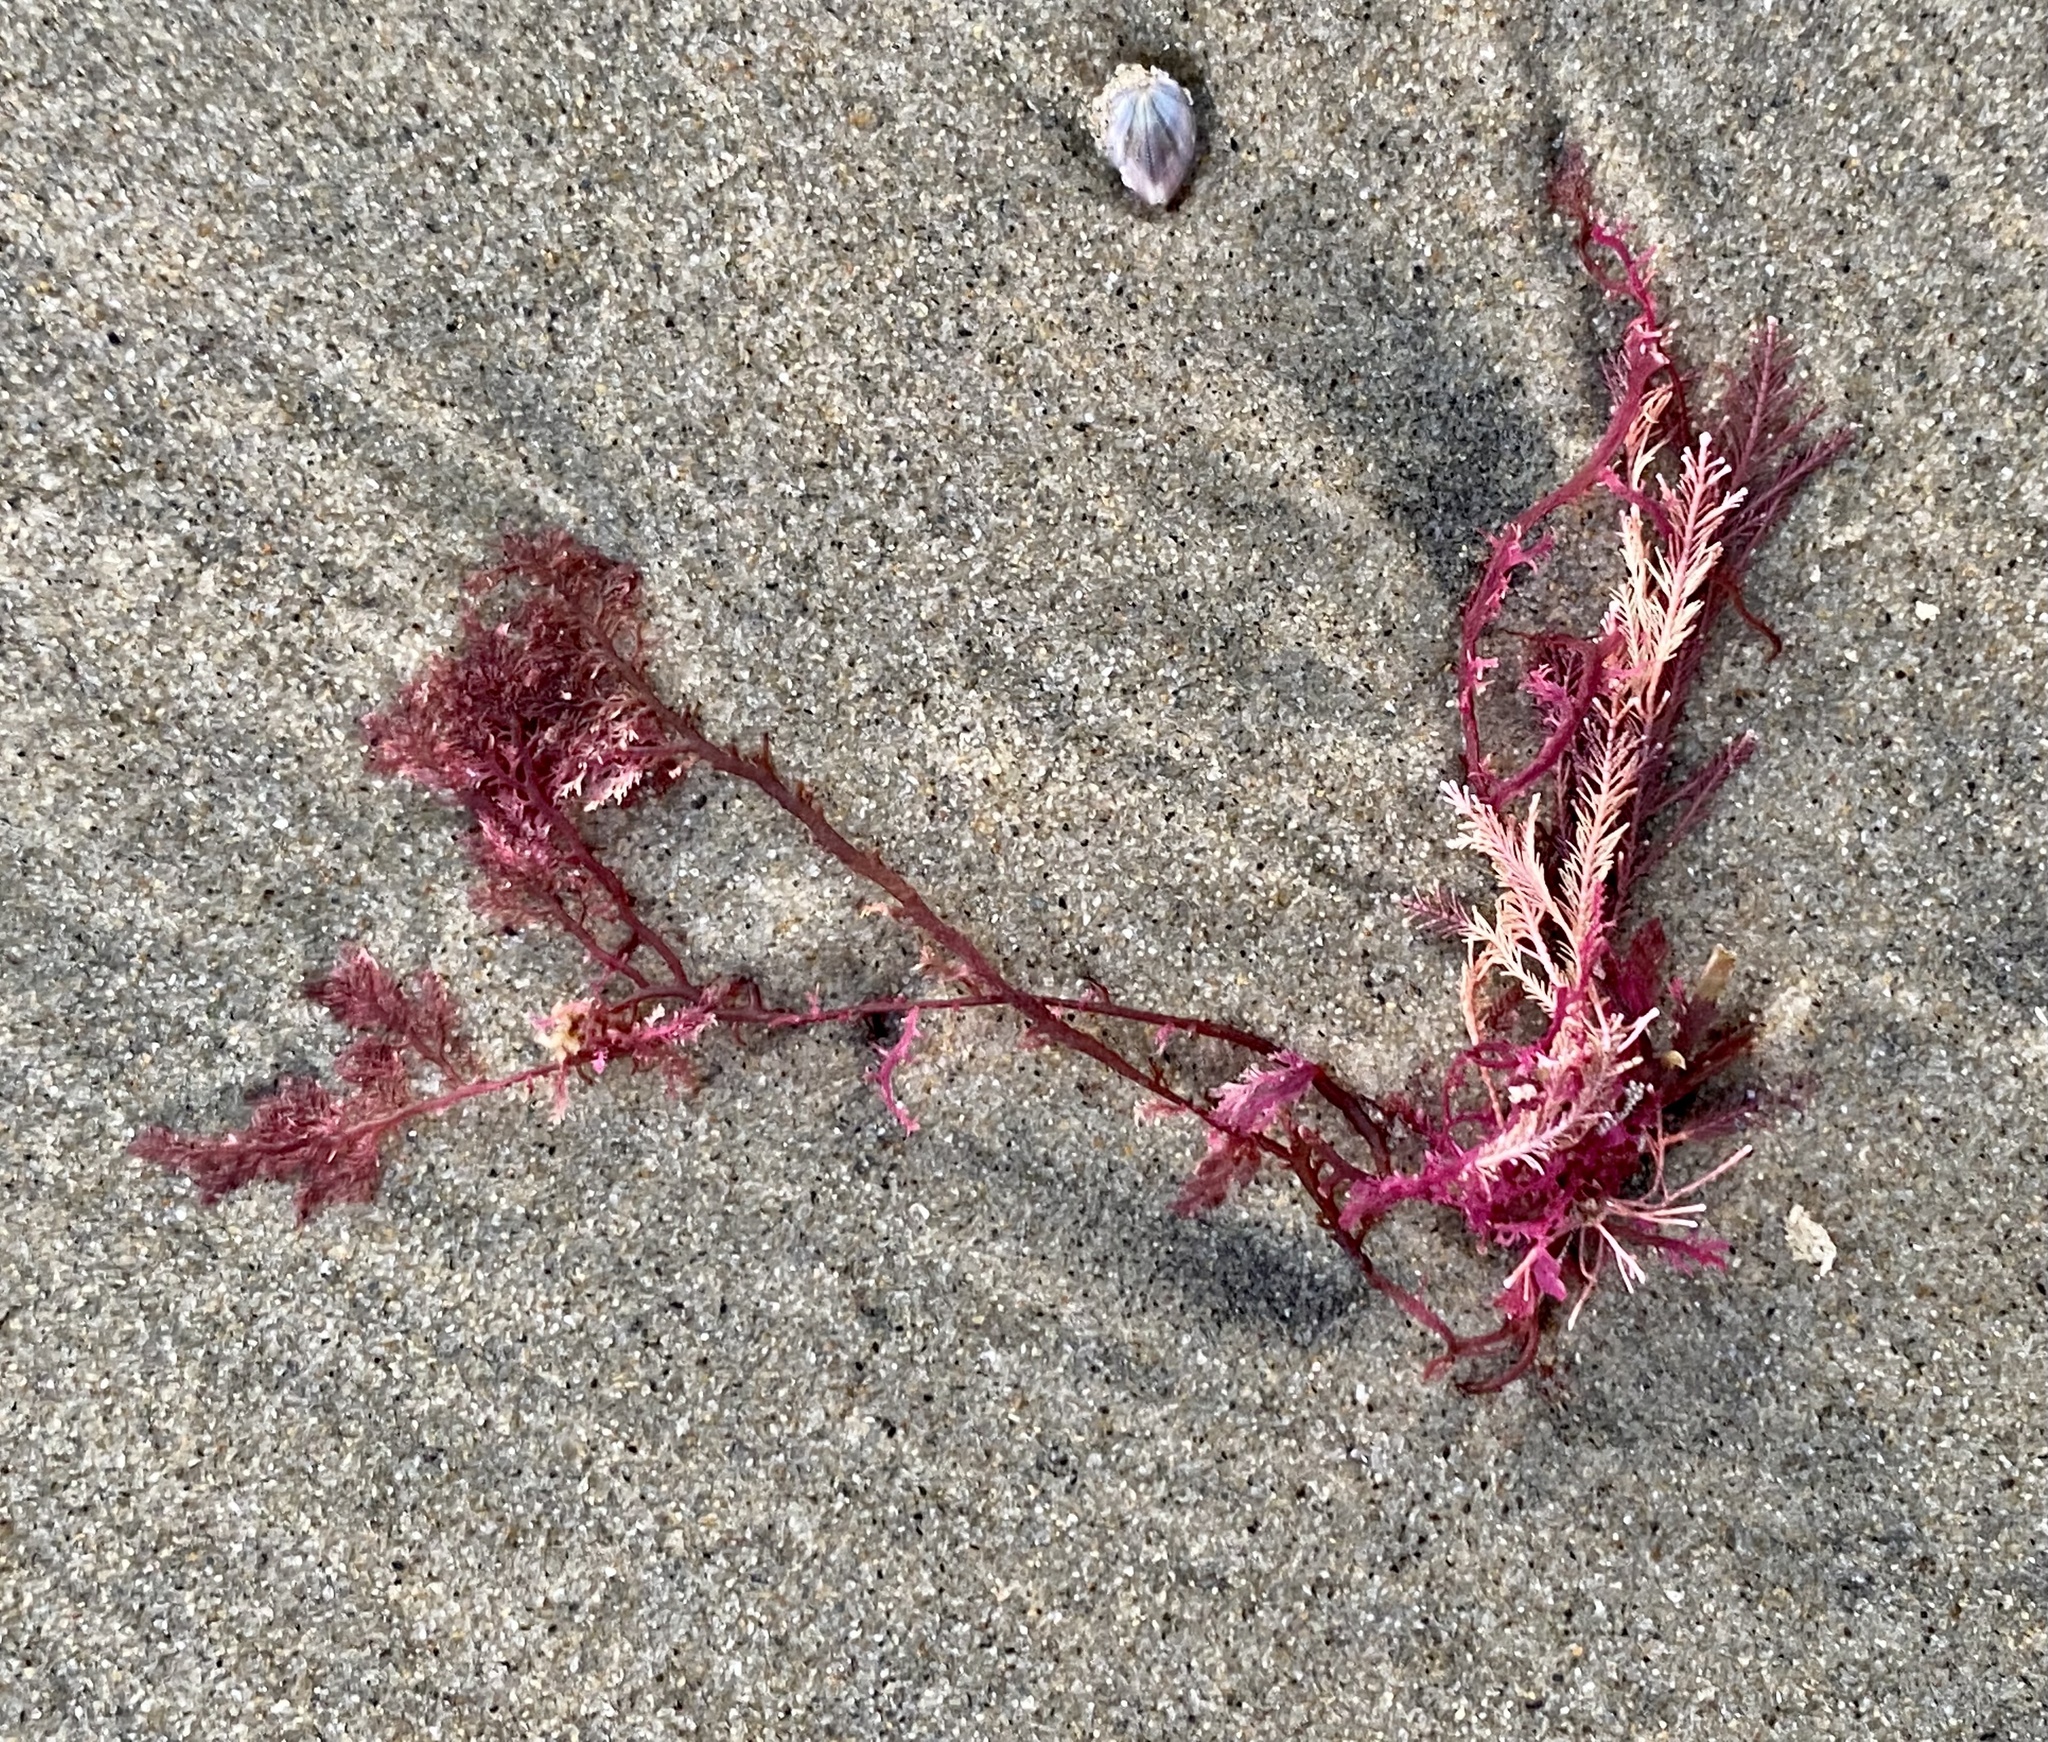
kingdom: Plantae
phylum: Rhodophyta
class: Florideophyceae
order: Plocamiales
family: Plocamiaceae
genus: Plocamium
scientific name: Plocamium cartilagineum
